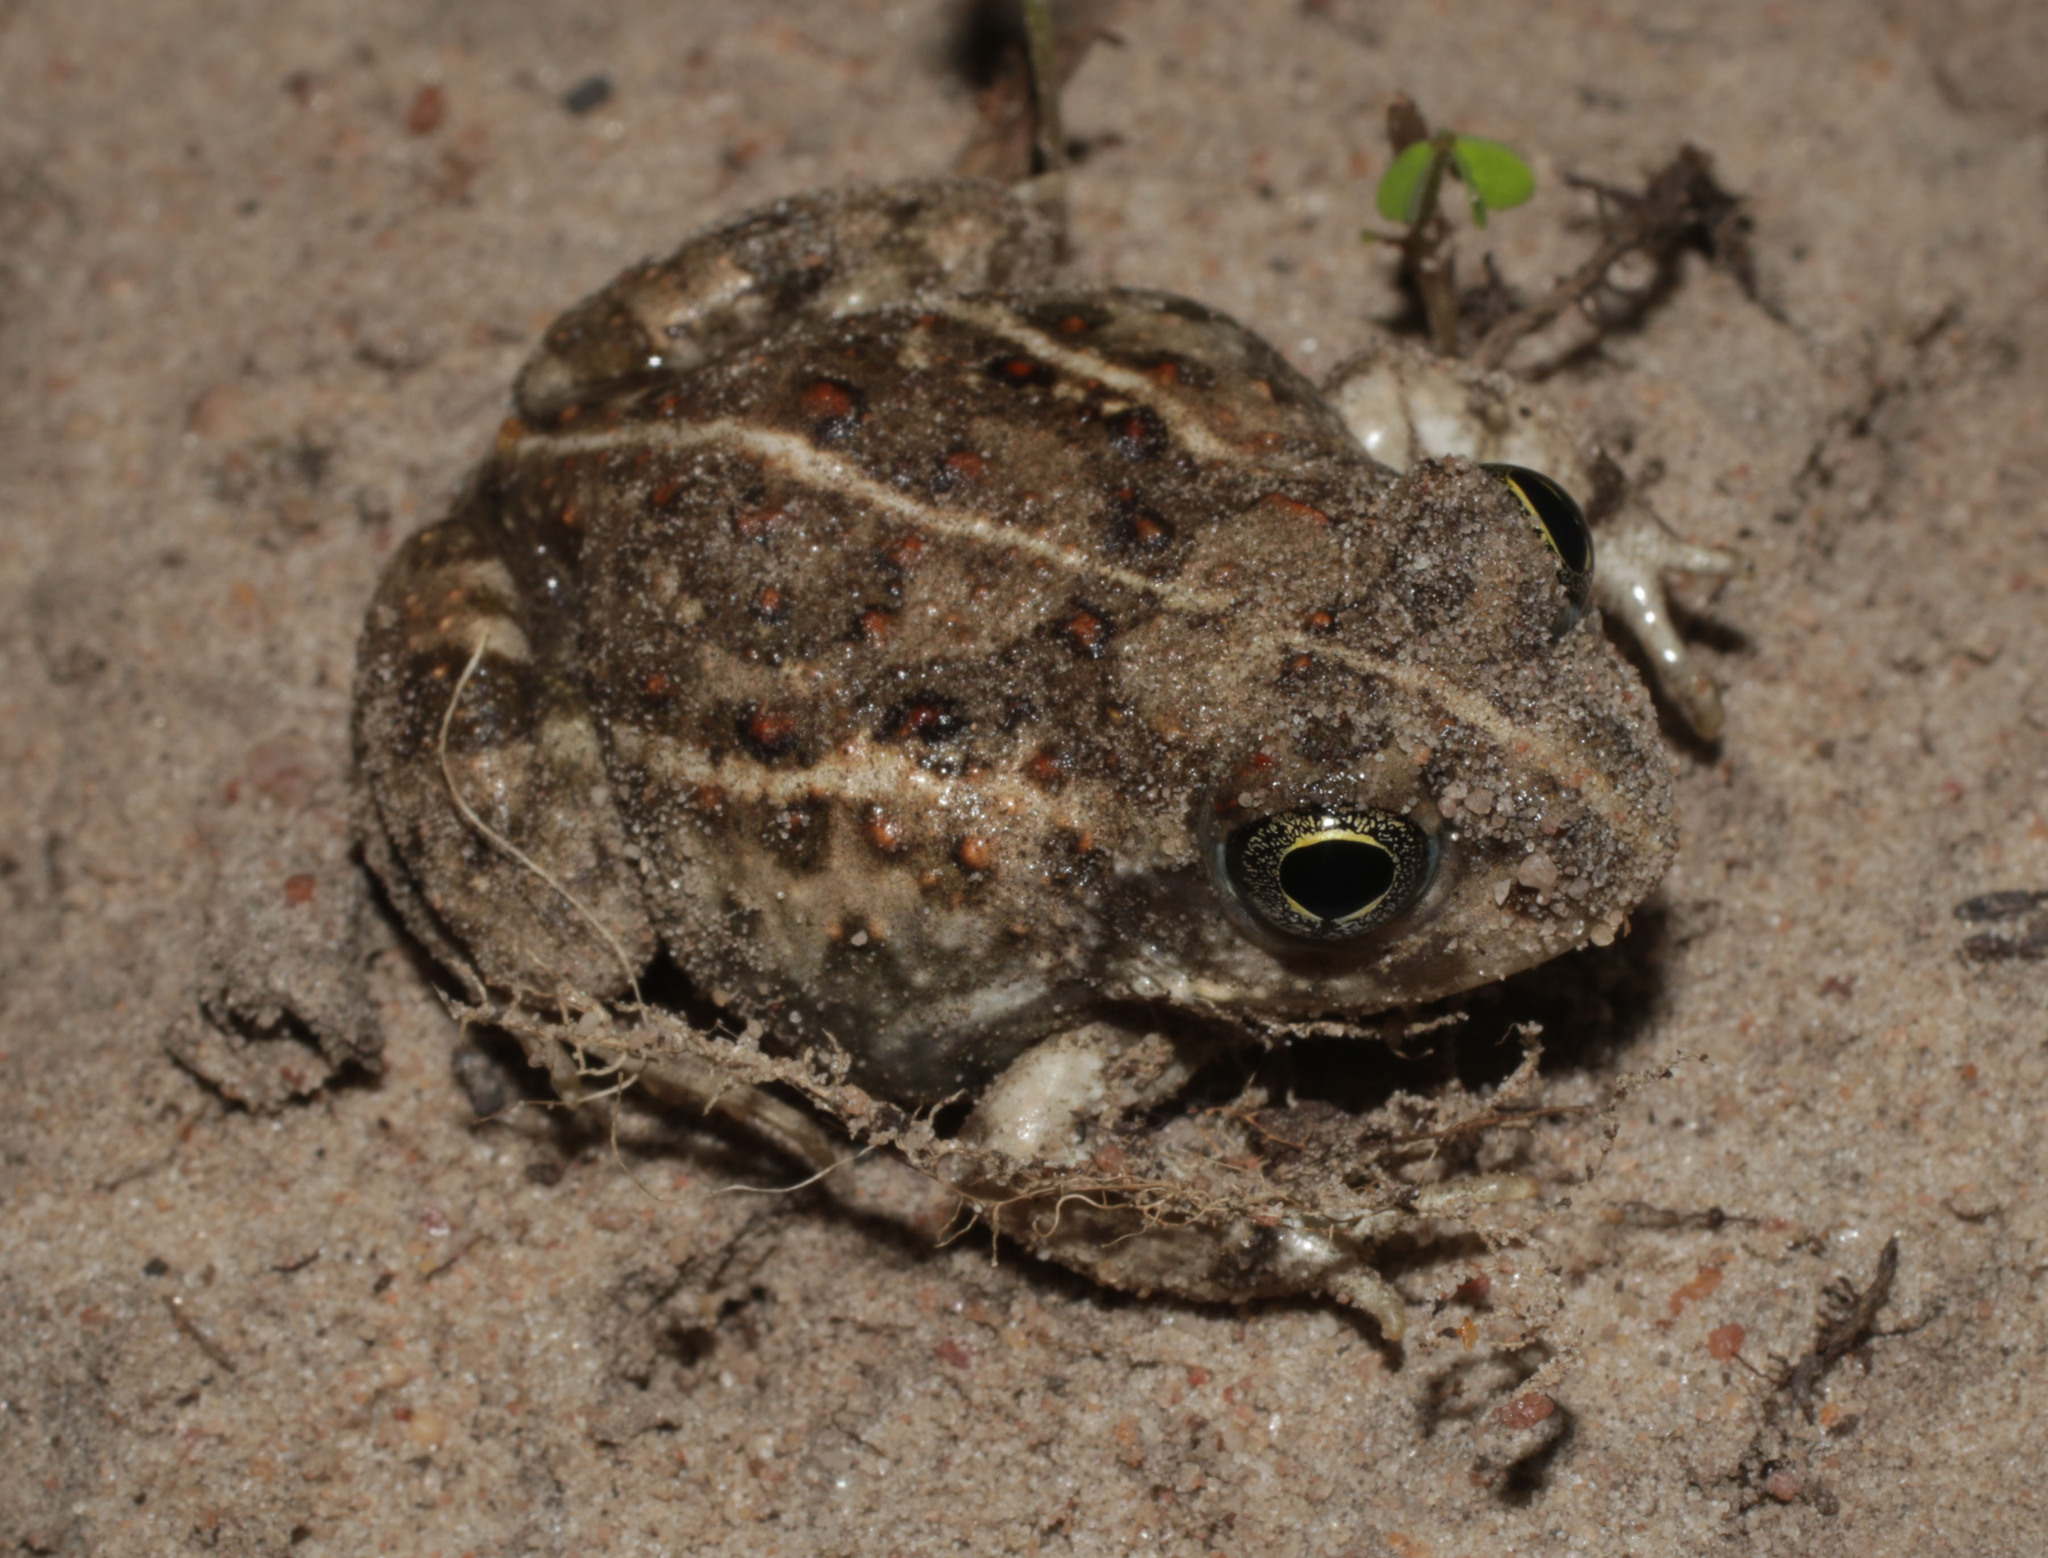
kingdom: Animalia
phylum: Chordata
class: Amphibia
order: Anura
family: Pyxicephalidae
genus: Tomopterna
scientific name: Tomopterna delalandii
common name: Delalande's burrowing bullfrog
